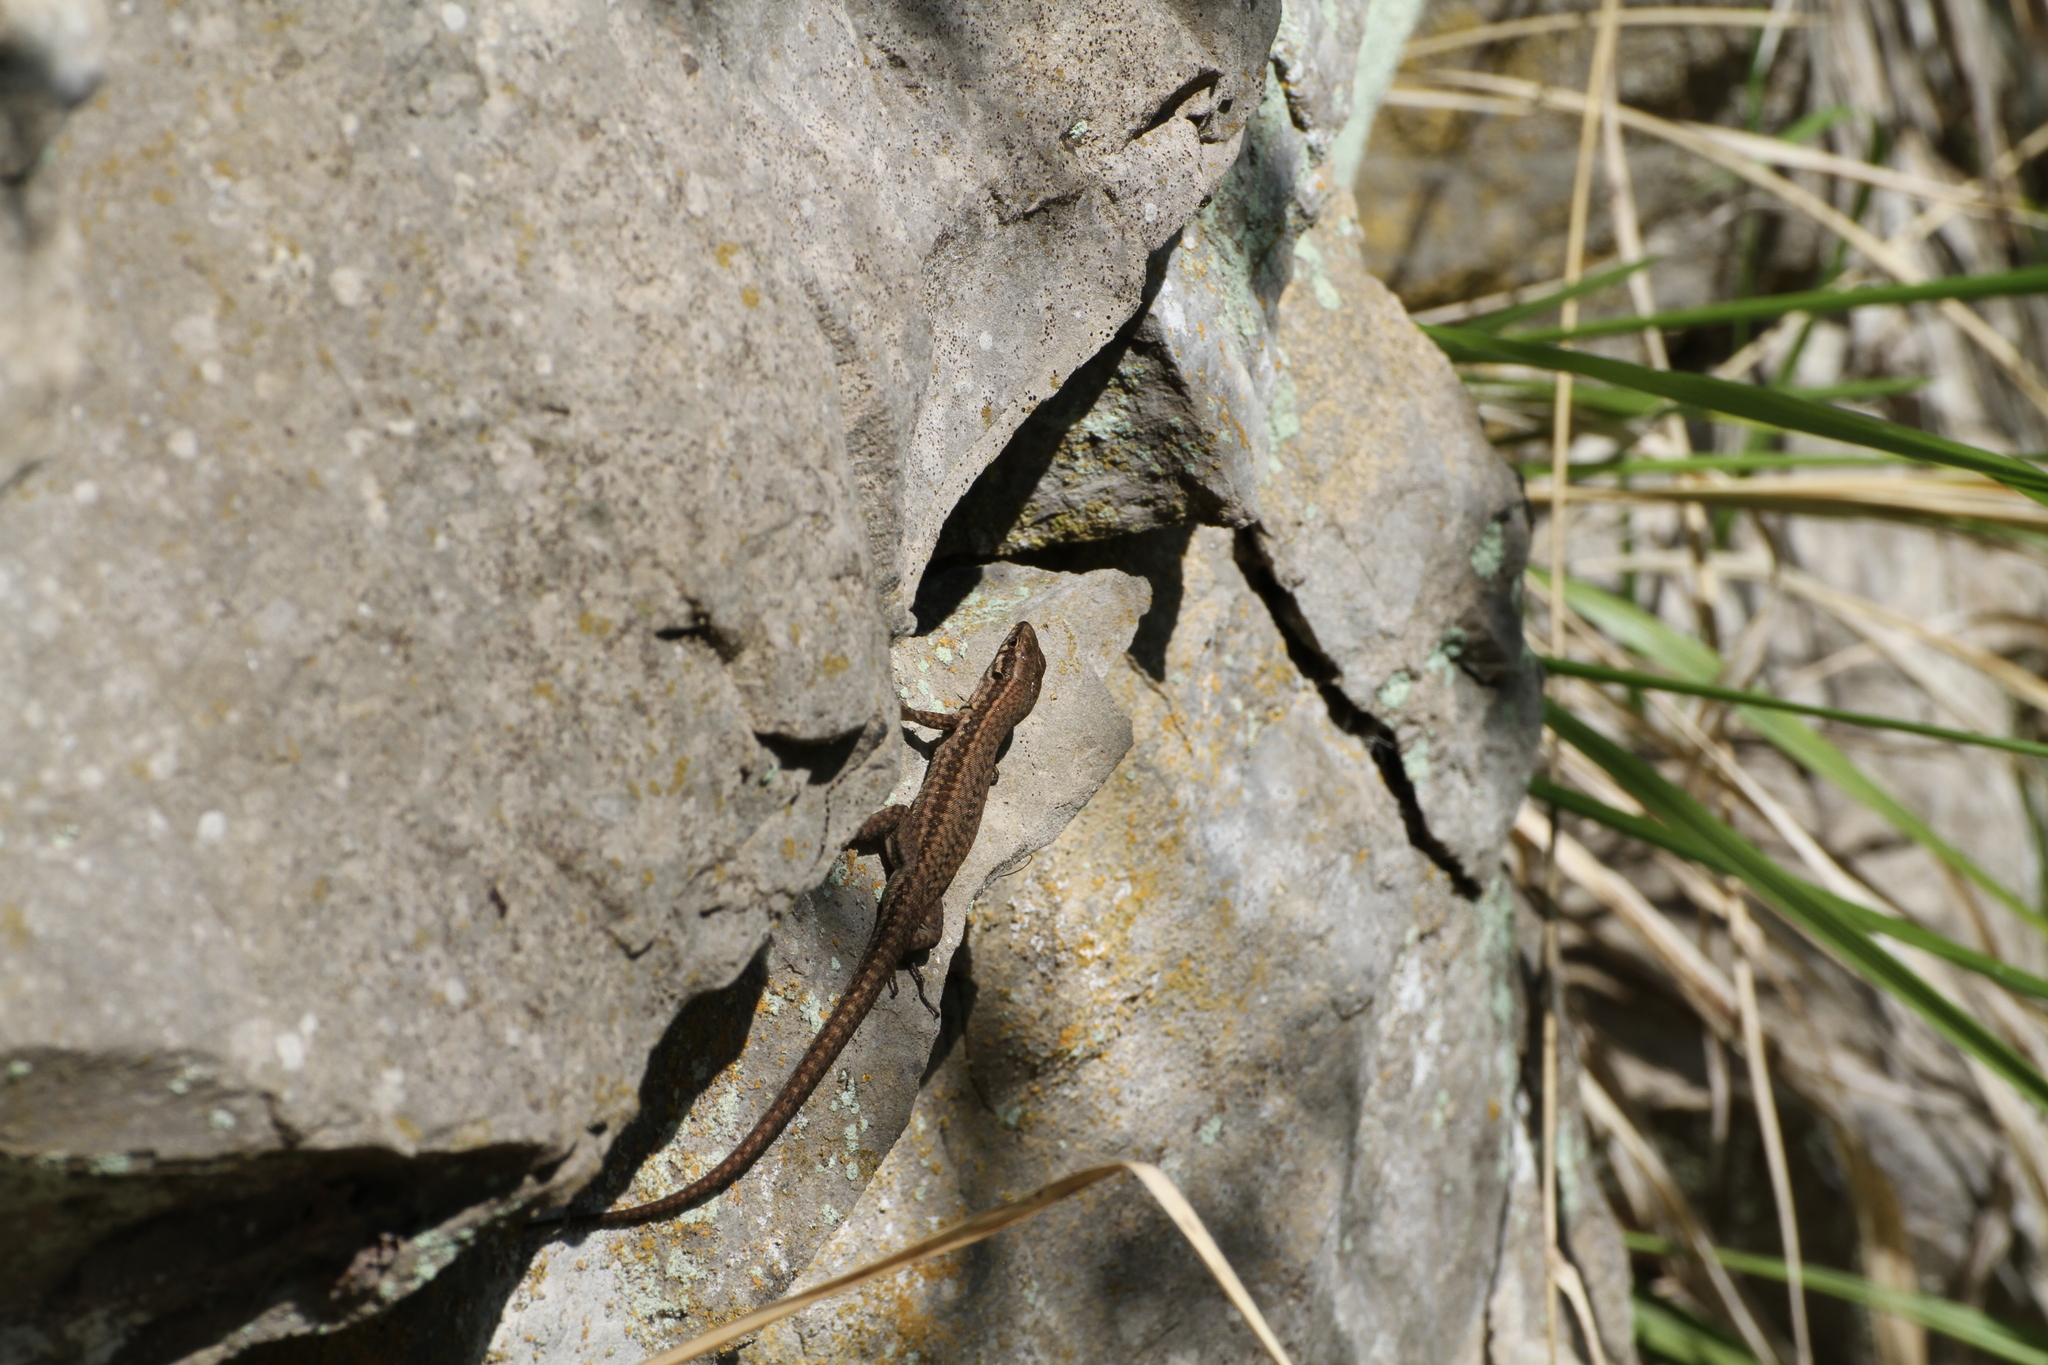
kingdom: Animalia
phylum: Chordata
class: Squamata
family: Lacertidae
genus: Podarcis
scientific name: Podarcis muralis
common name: Common wall lizard
